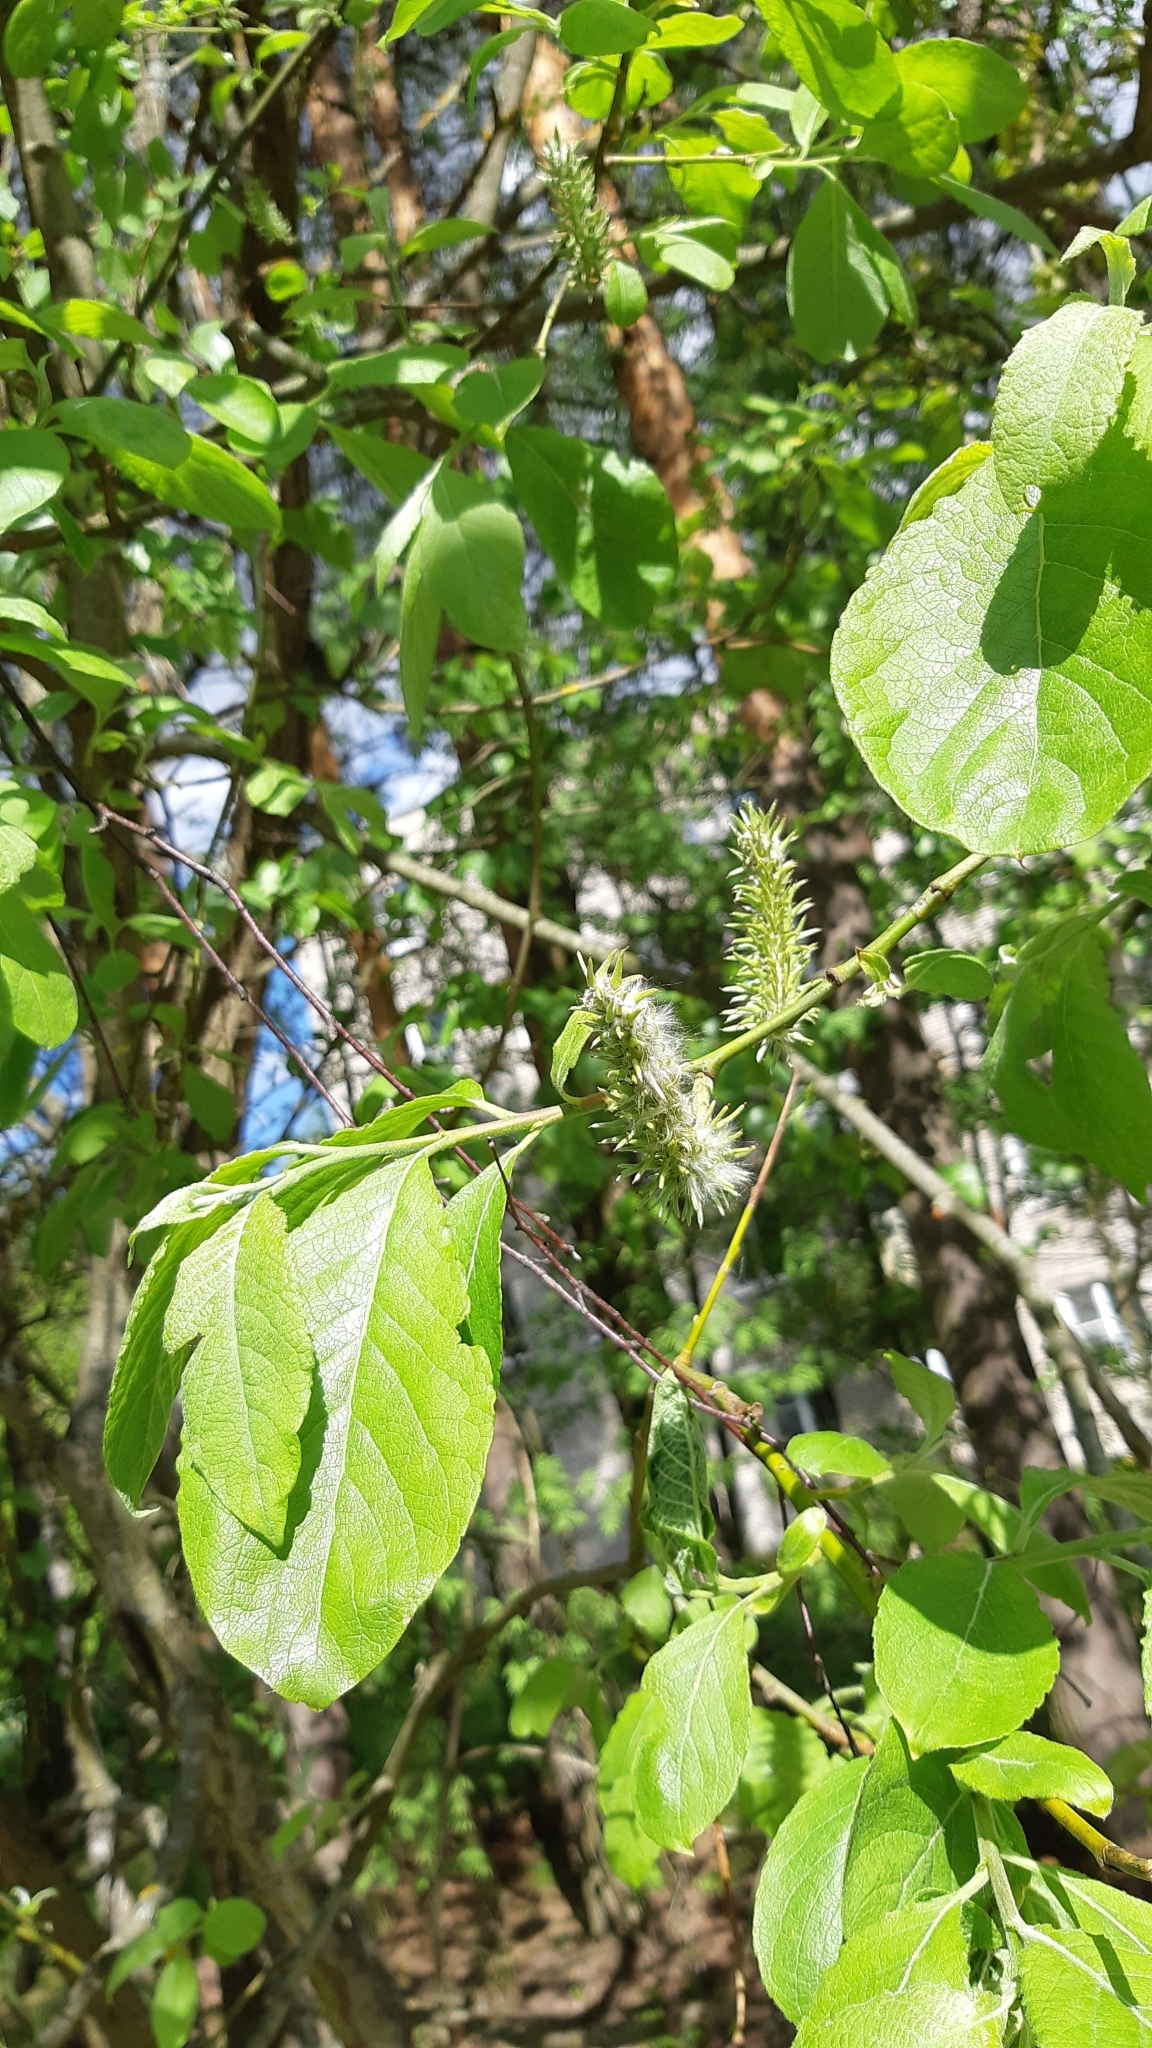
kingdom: Plantae
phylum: Tracheophyta
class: Magnoliopsida
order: Malpighiales
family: Salicaceae
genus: Salix
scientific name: Salix caprea
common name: Goat willow
